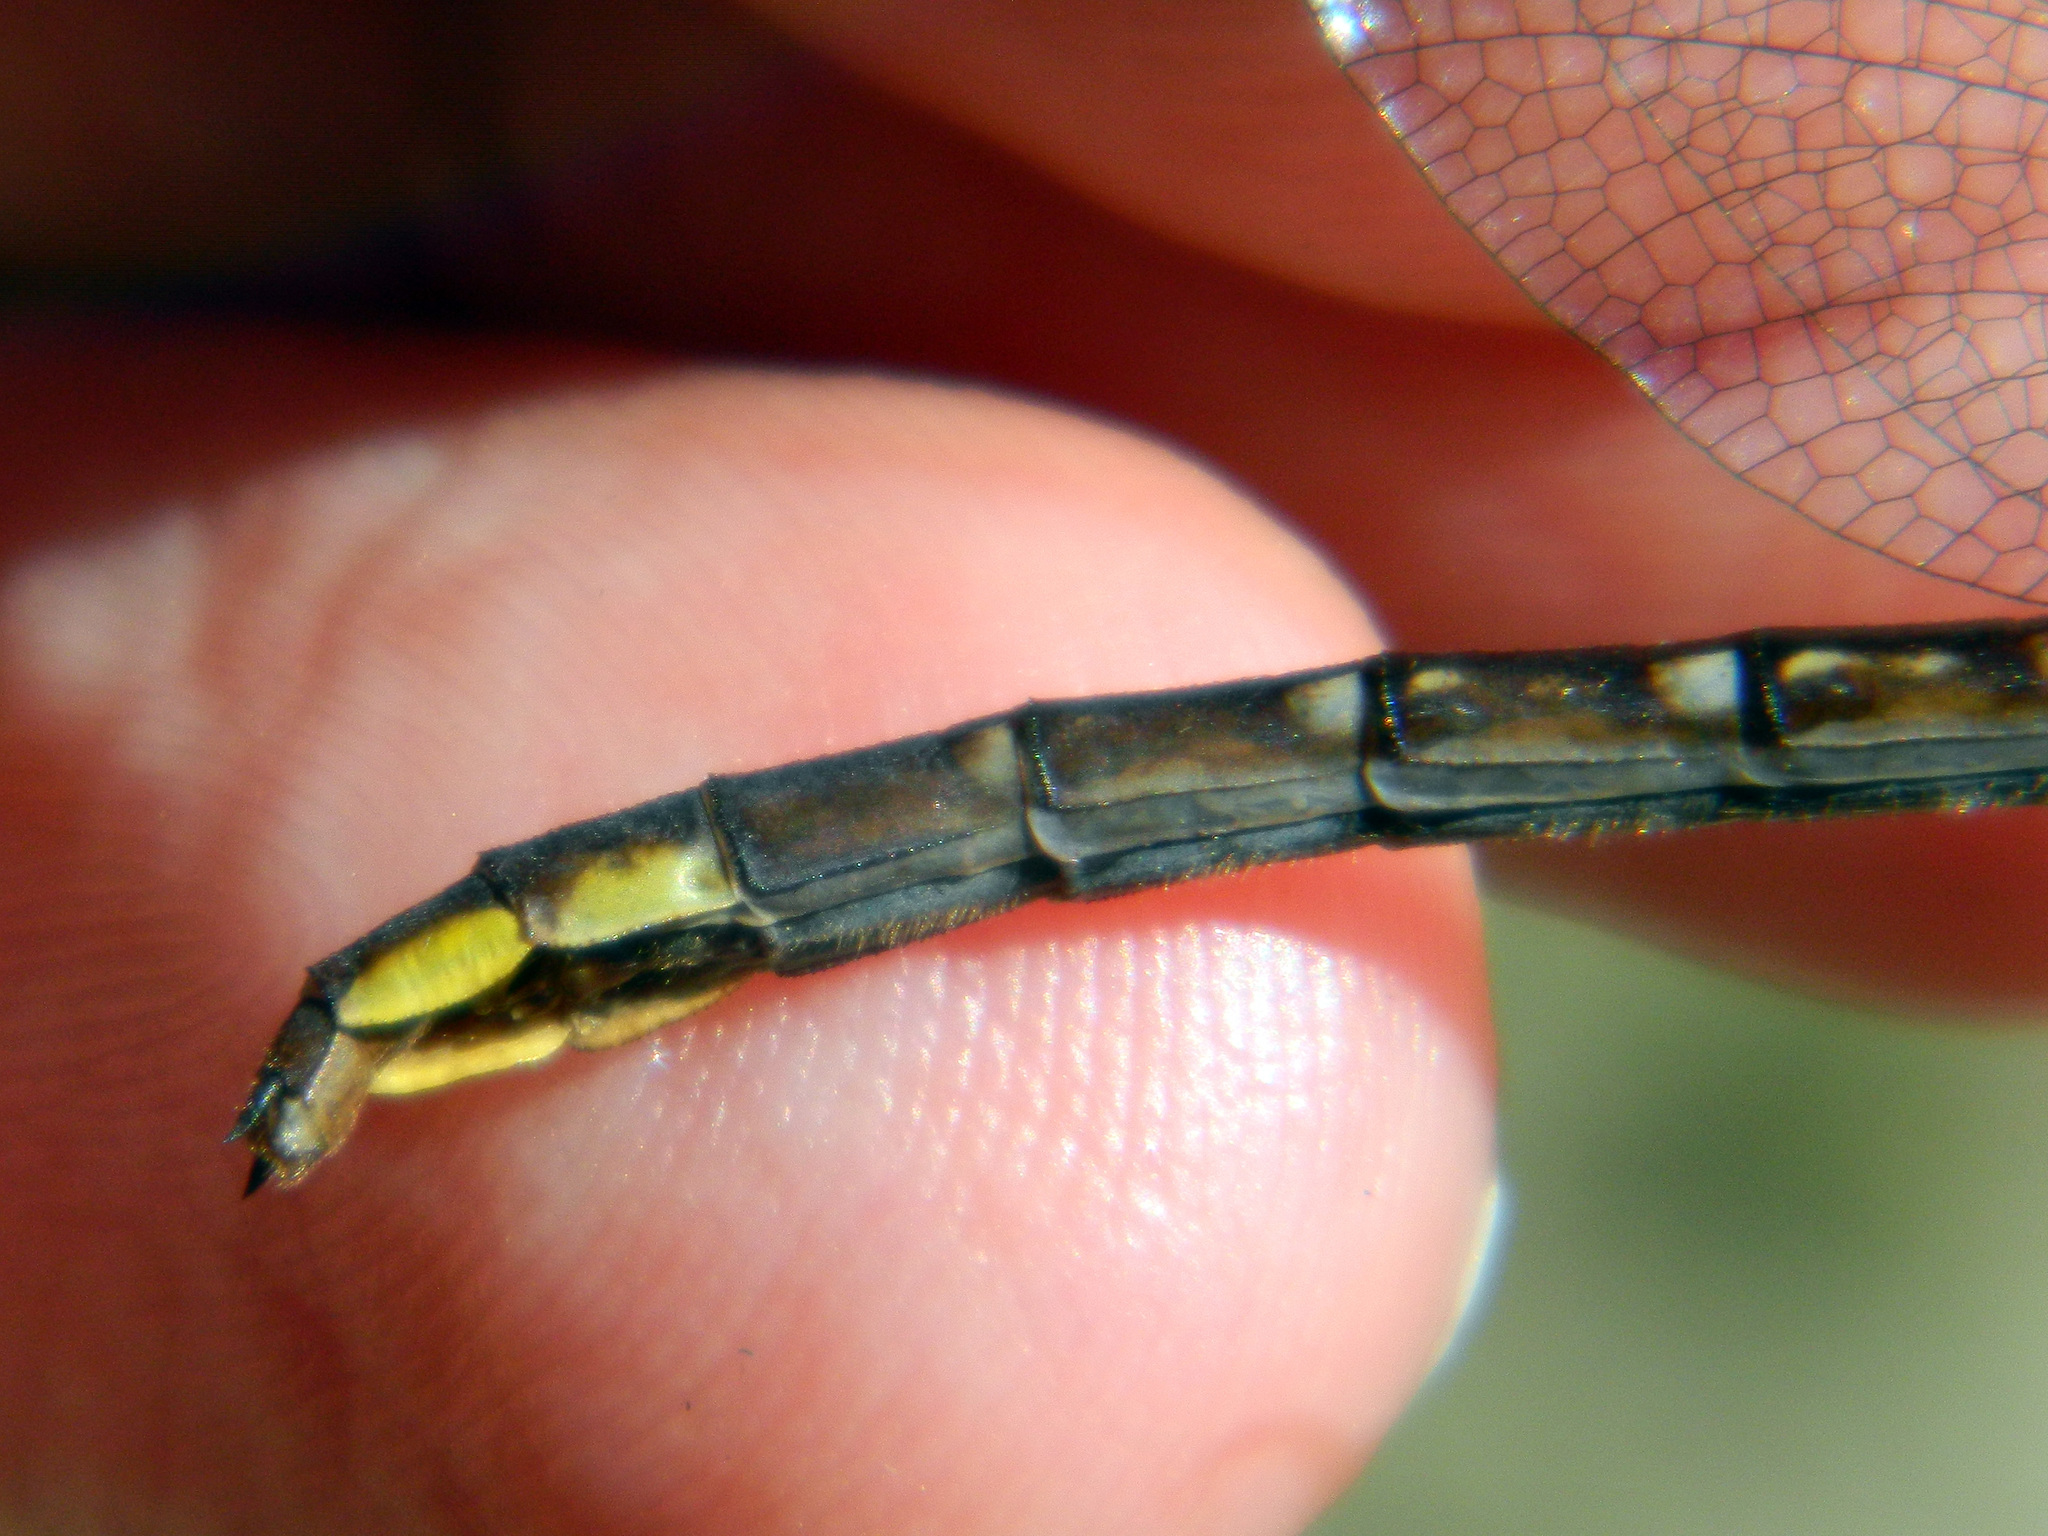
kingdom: Animalia
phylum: Arthropoda
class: Insecta
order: Odonata
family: Gomphidae
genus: Phanogomphus
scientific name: Phanogomphus exilis
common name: Lancet clubtail
